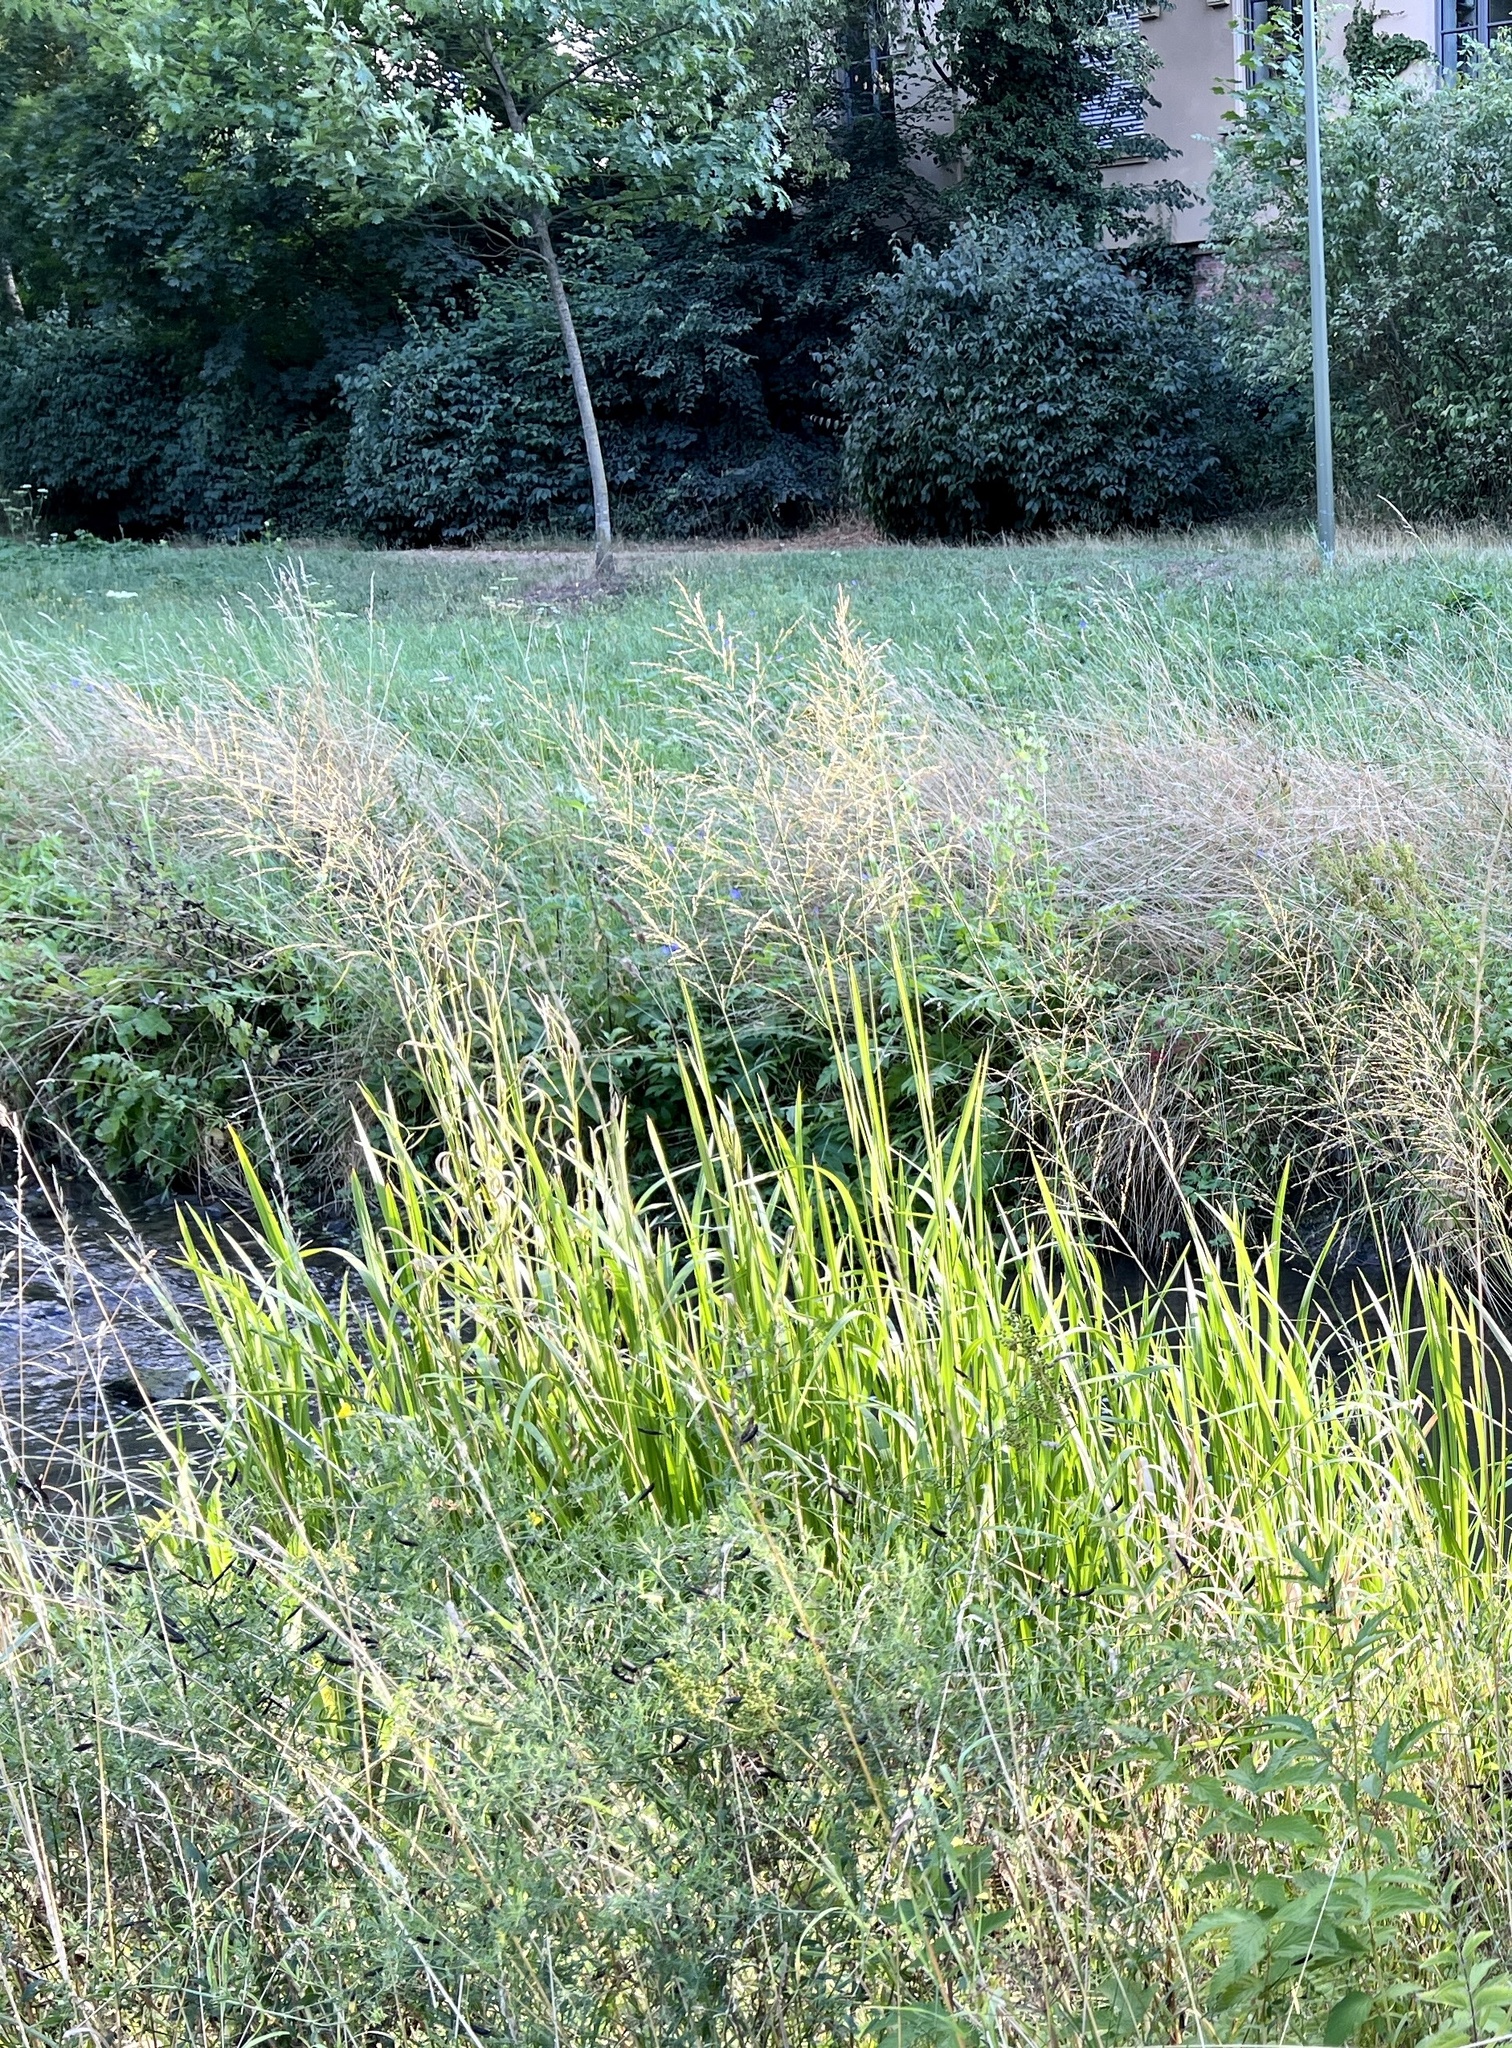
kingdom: Plantae
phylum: Tracheophyta
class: Liliopsida
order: Poales
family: Poaceae
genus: Glyceria
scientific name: Glyceria maxima
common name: Reed mannagrass
